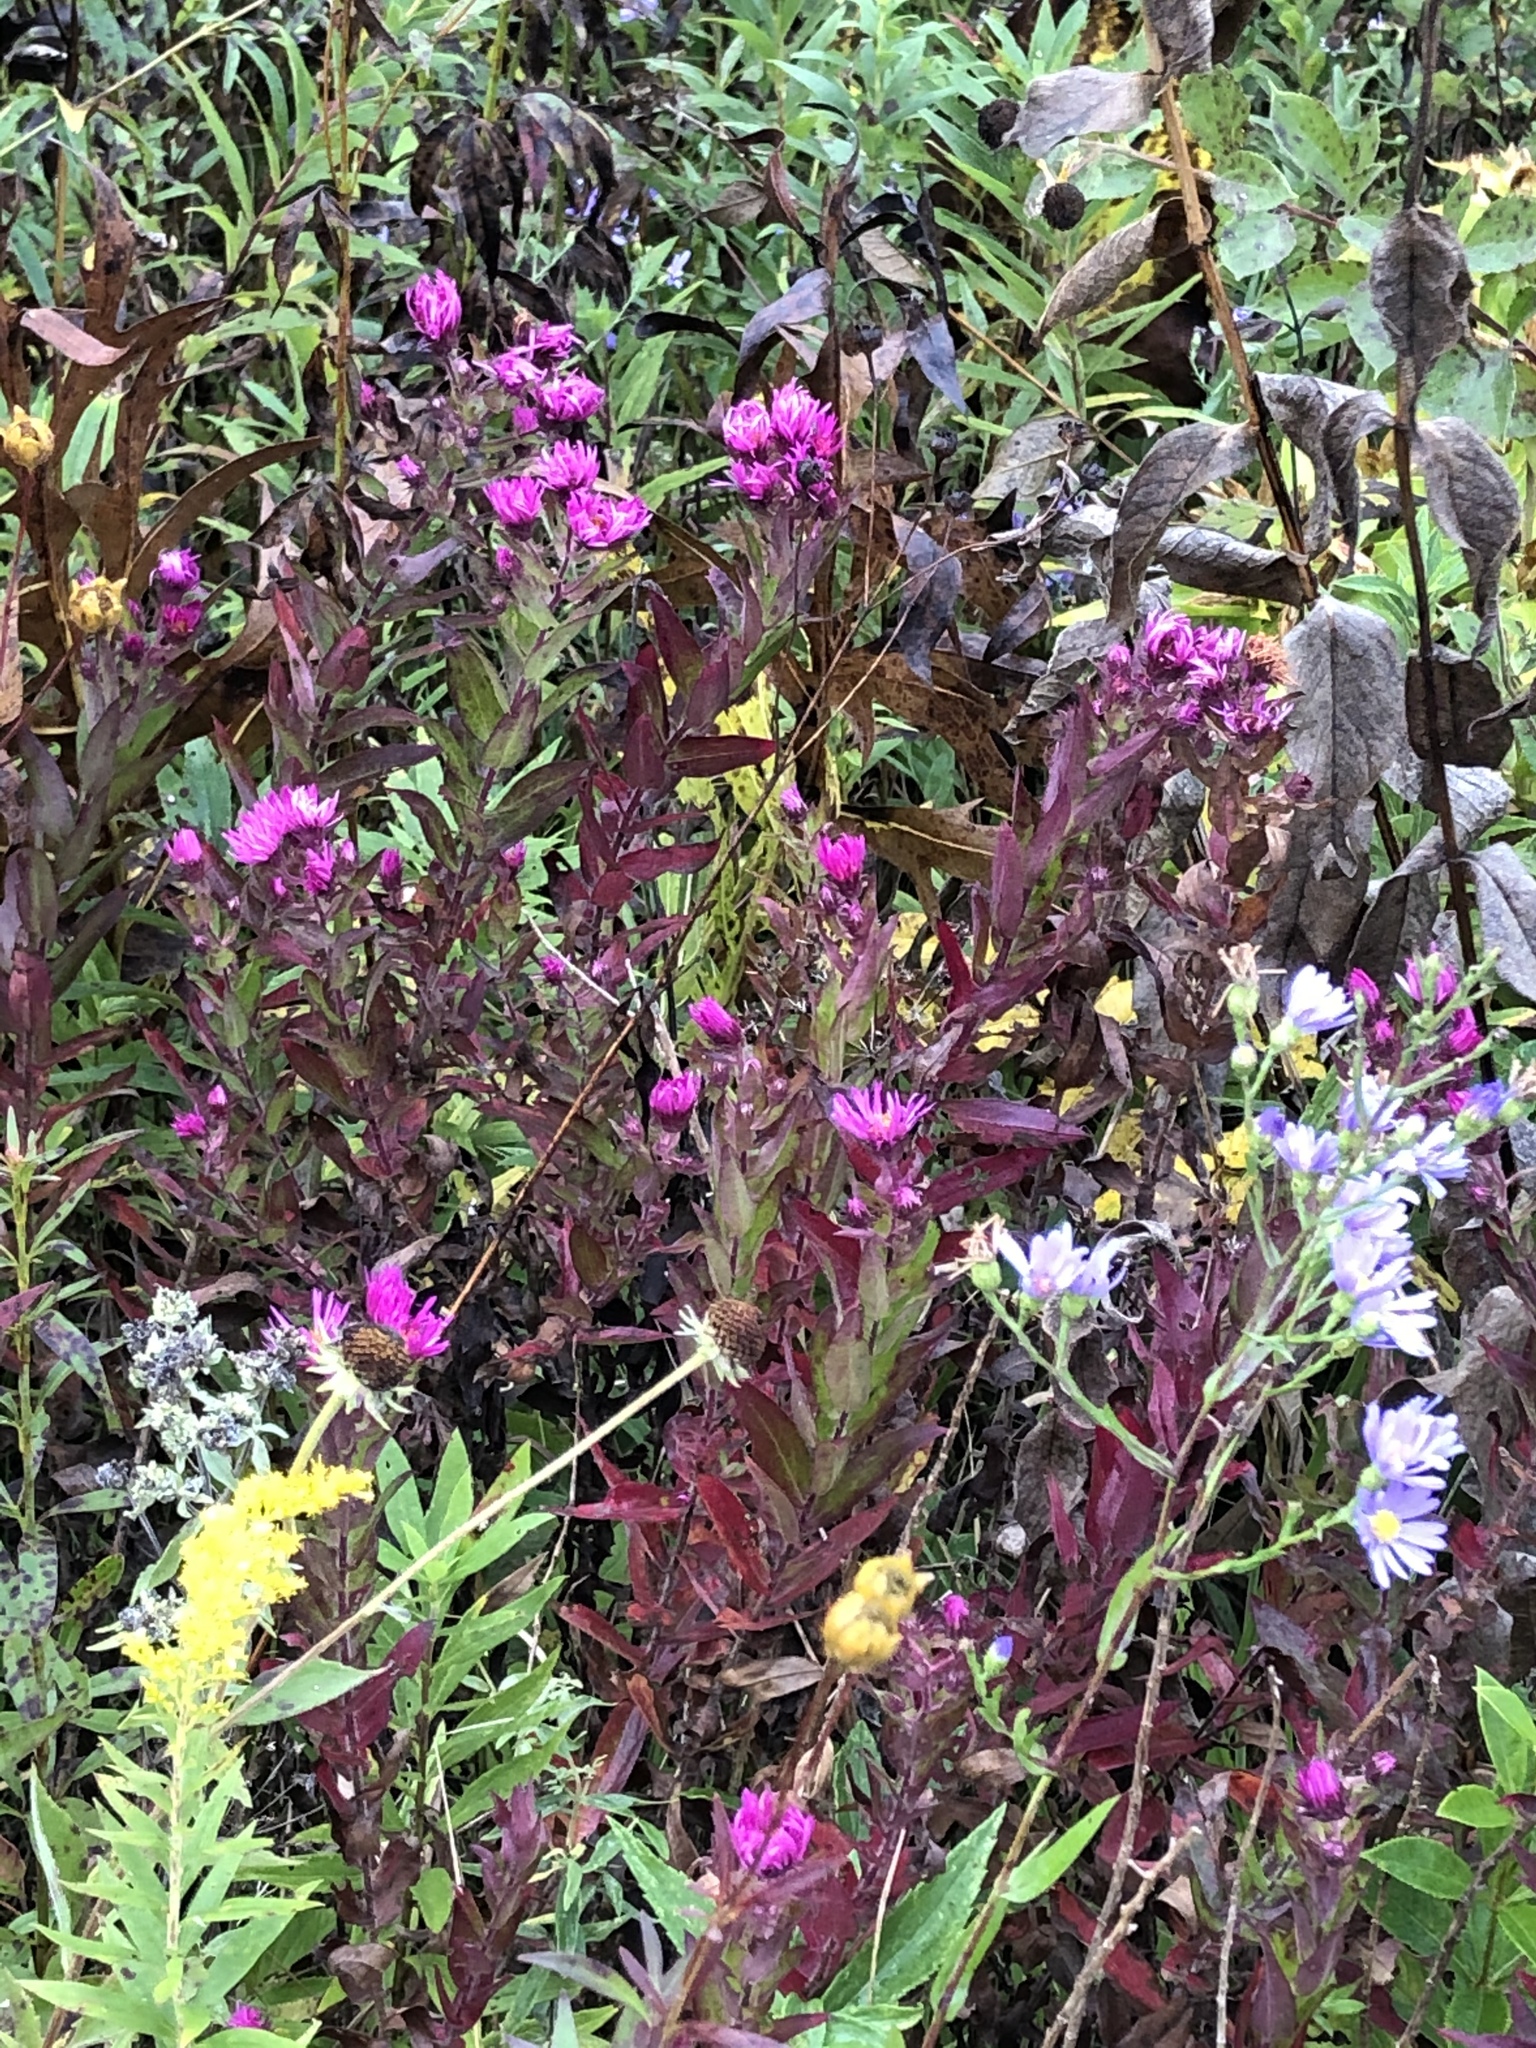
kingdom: Plantae
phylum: Tracheophyta
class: Magnoliopsida
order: Asterales
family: Asteraceae
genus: Symphyotrichum
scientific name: Symphyotrichum novae-angliae
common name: Michaelmas daisy
